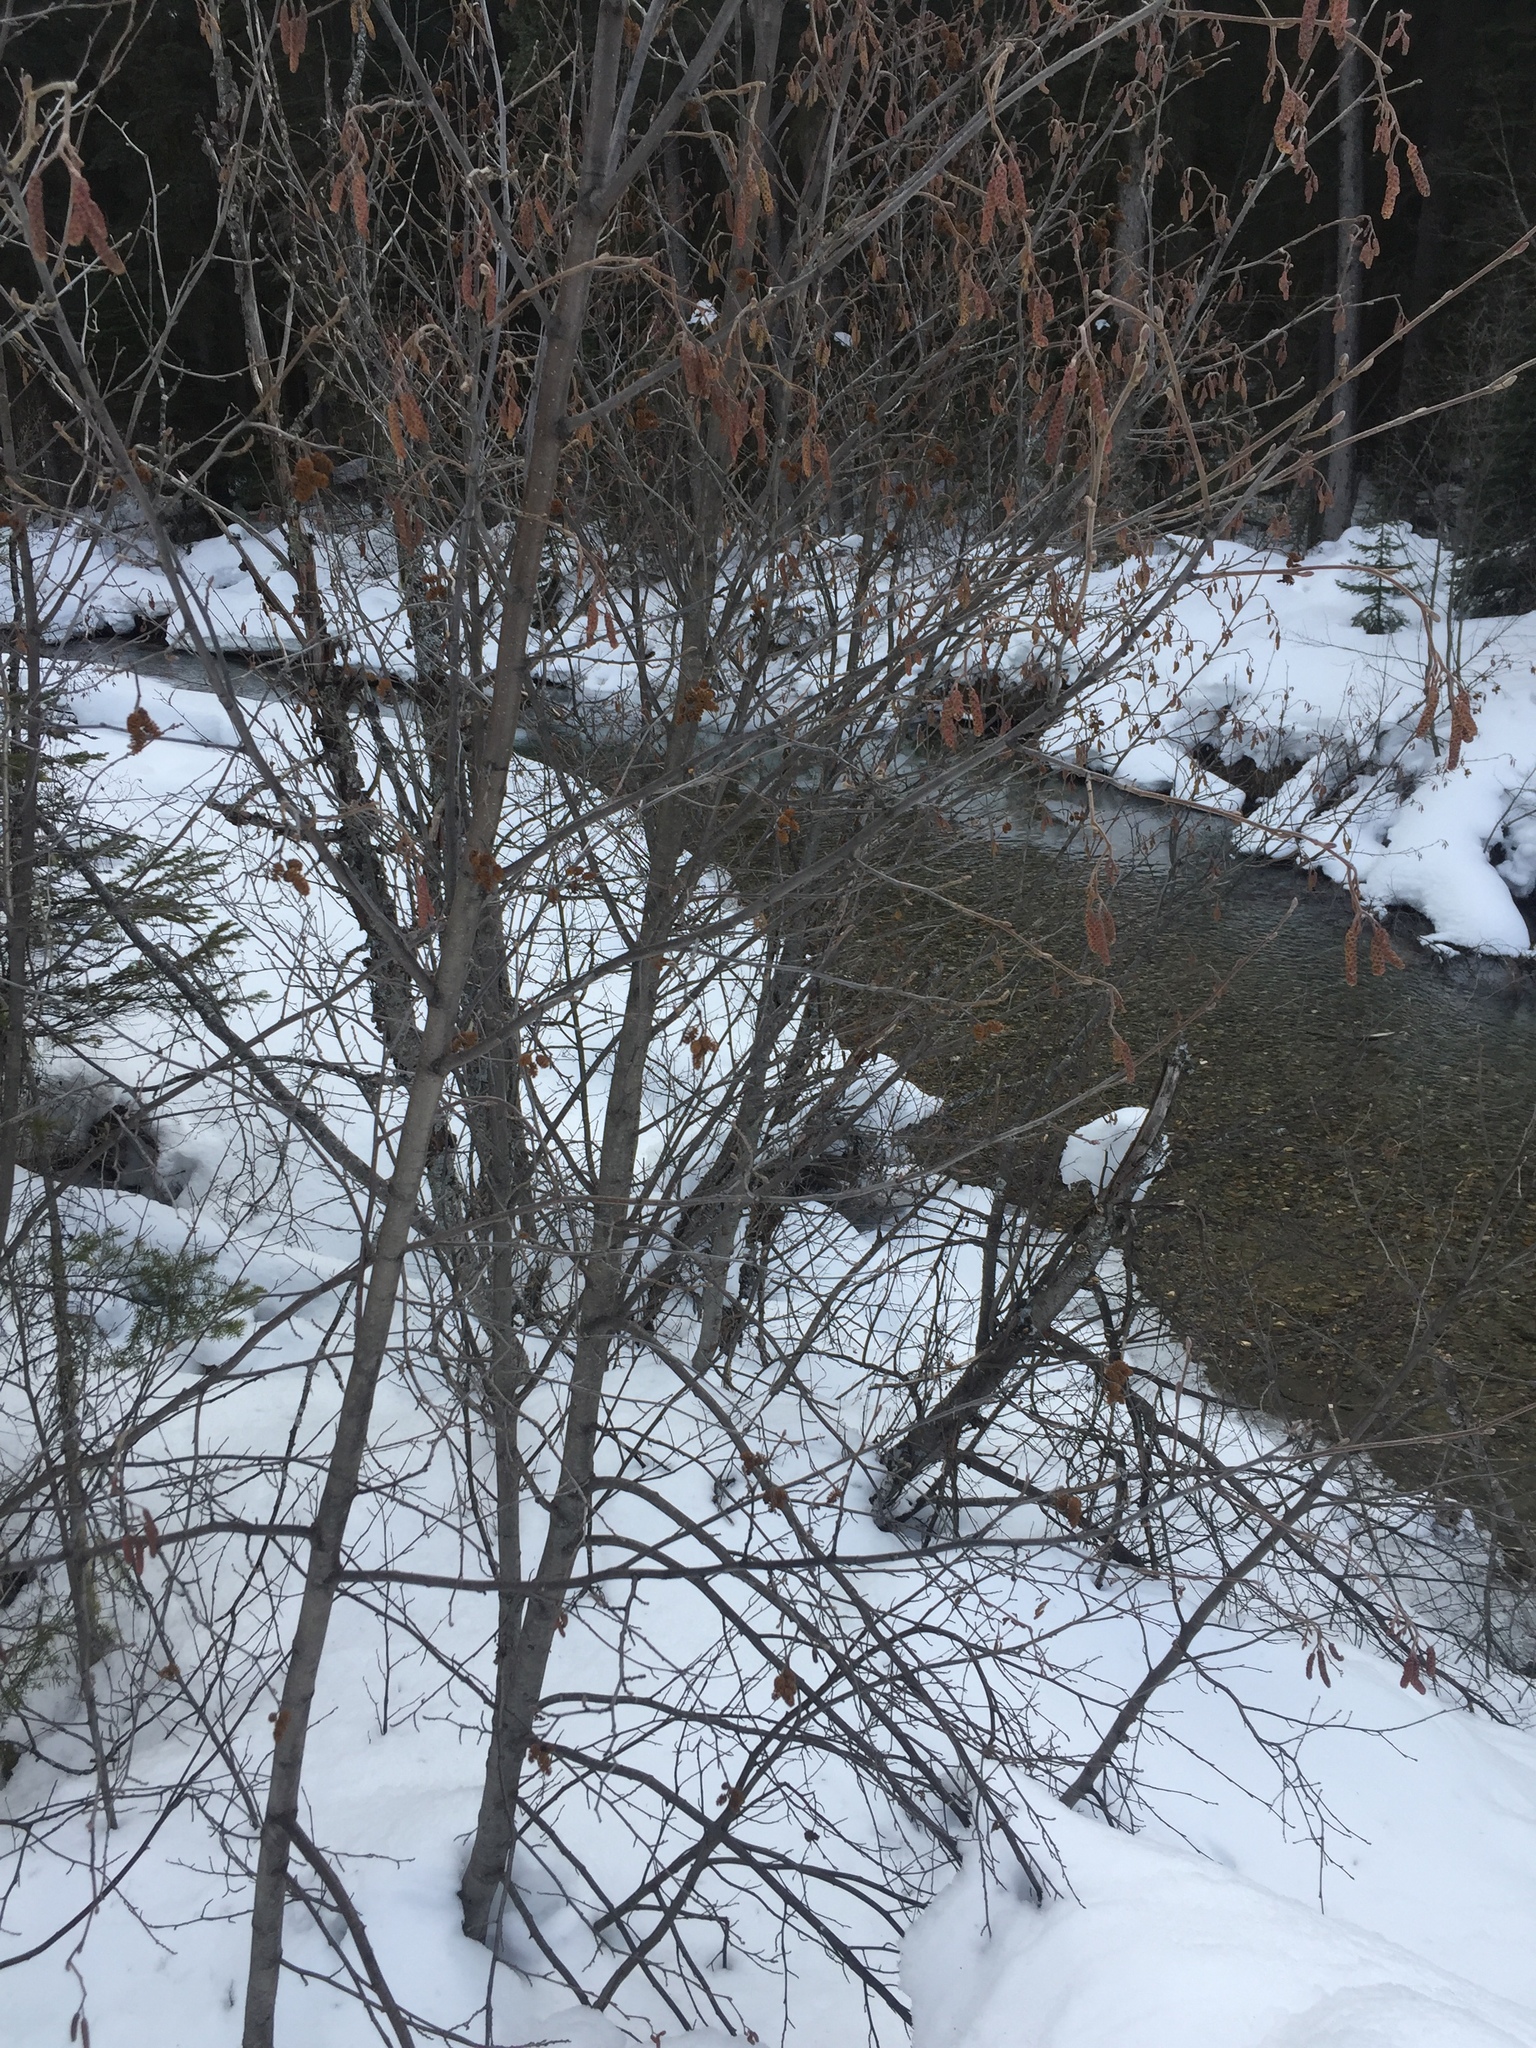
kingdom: Plantae
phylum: Tracheophyta
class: Magnoliopsida
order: Fagales
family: Betulaceae
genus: Alnus
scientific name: Alnus incana
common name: Grey alder
